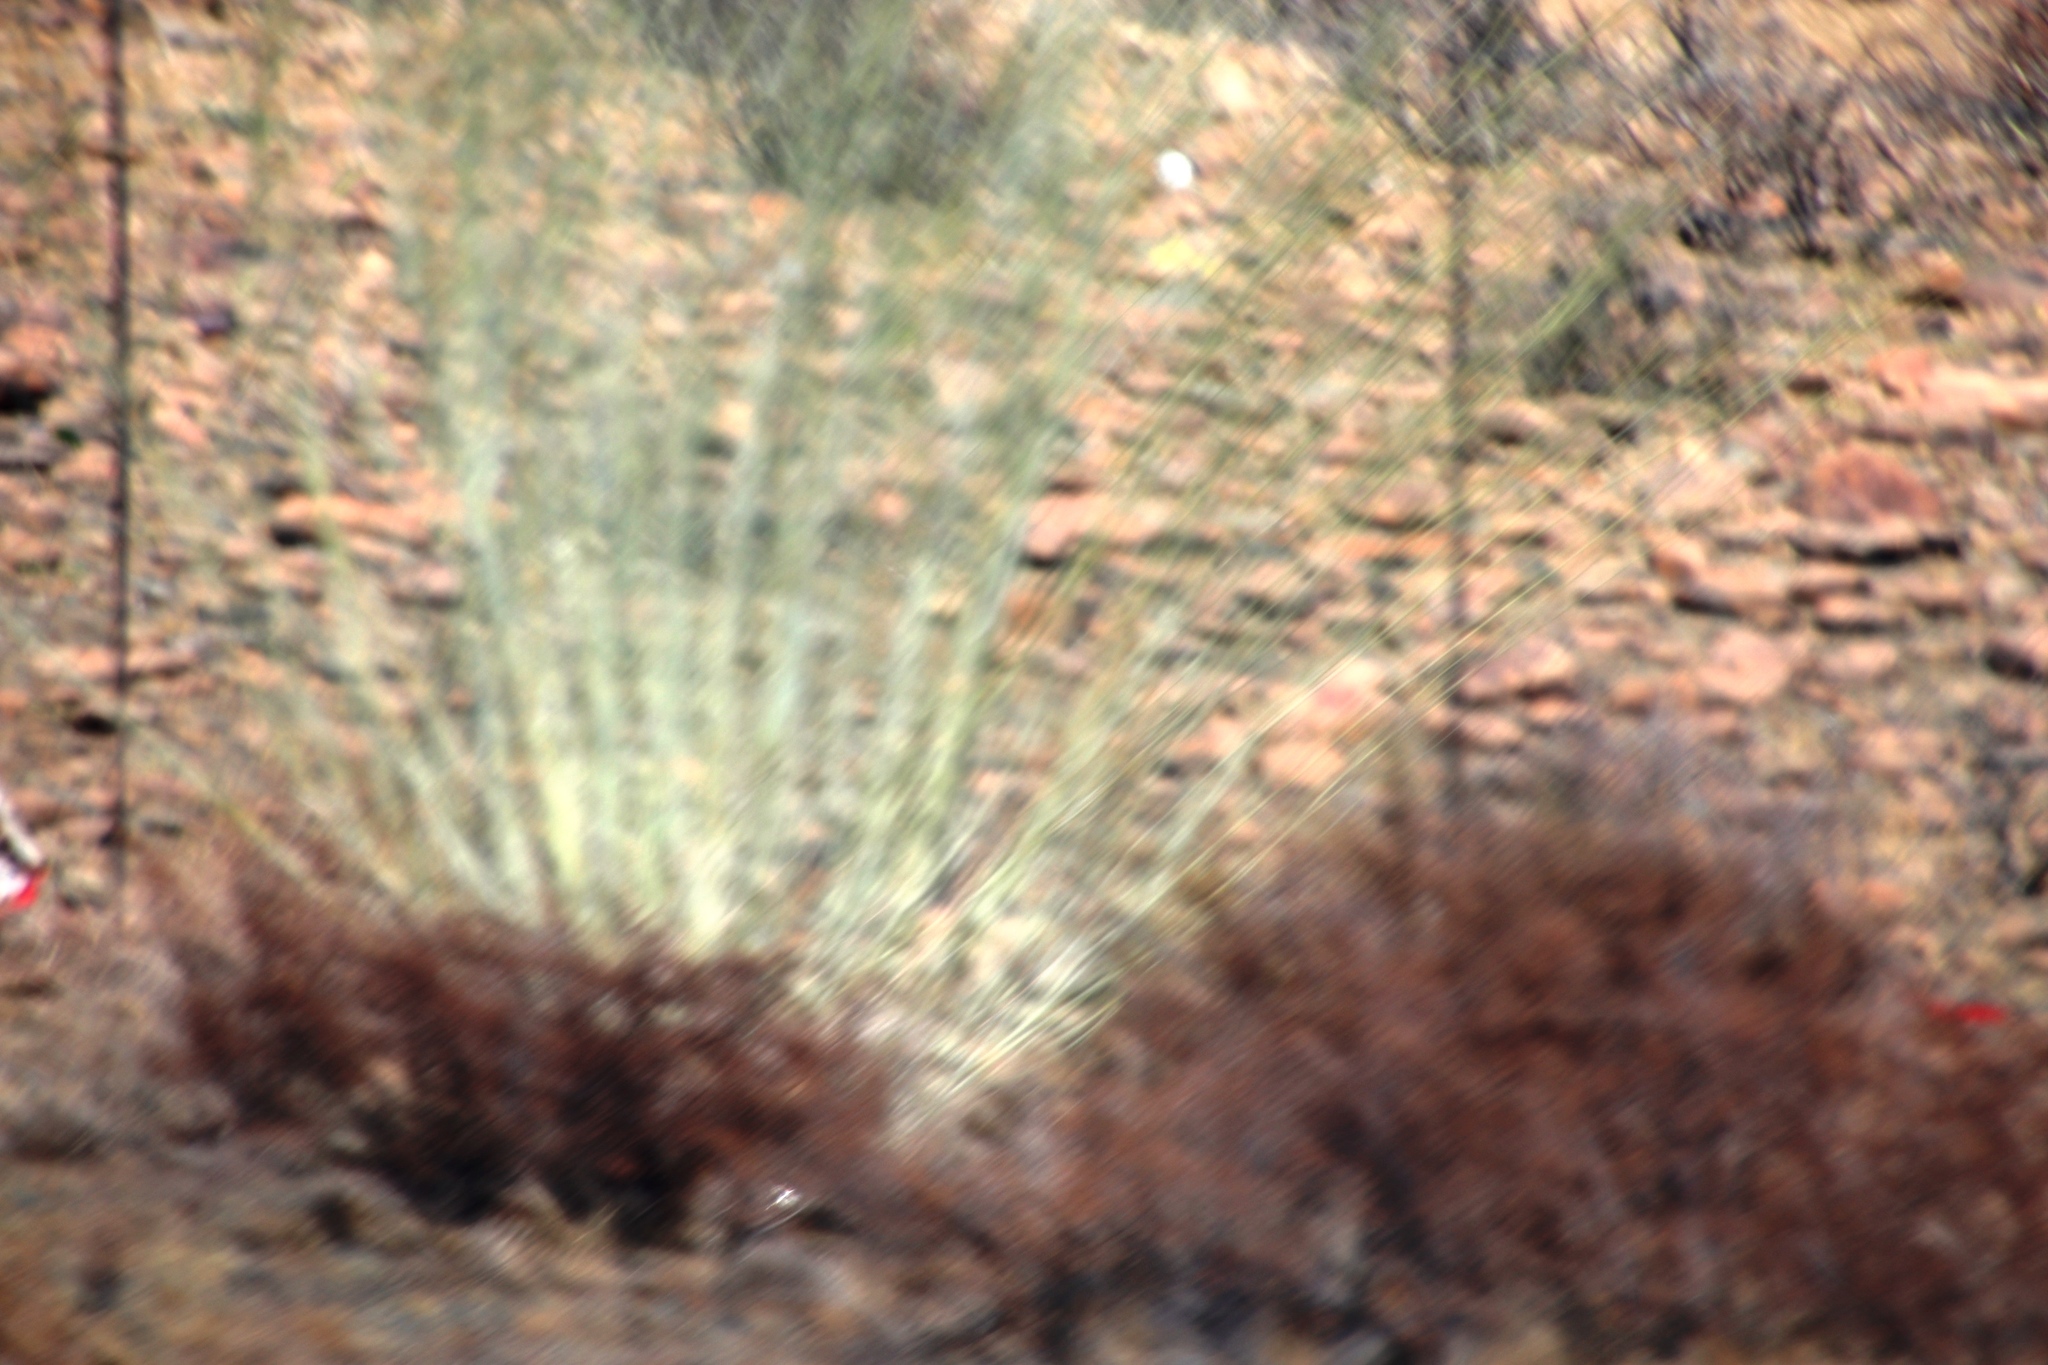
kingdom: Plantae
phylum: Tracheophyta
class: Magnoliopsida
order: Gentianales
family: Apocynaceae
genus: Gomphocarpus
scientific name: Gomphocarpus filiformis
